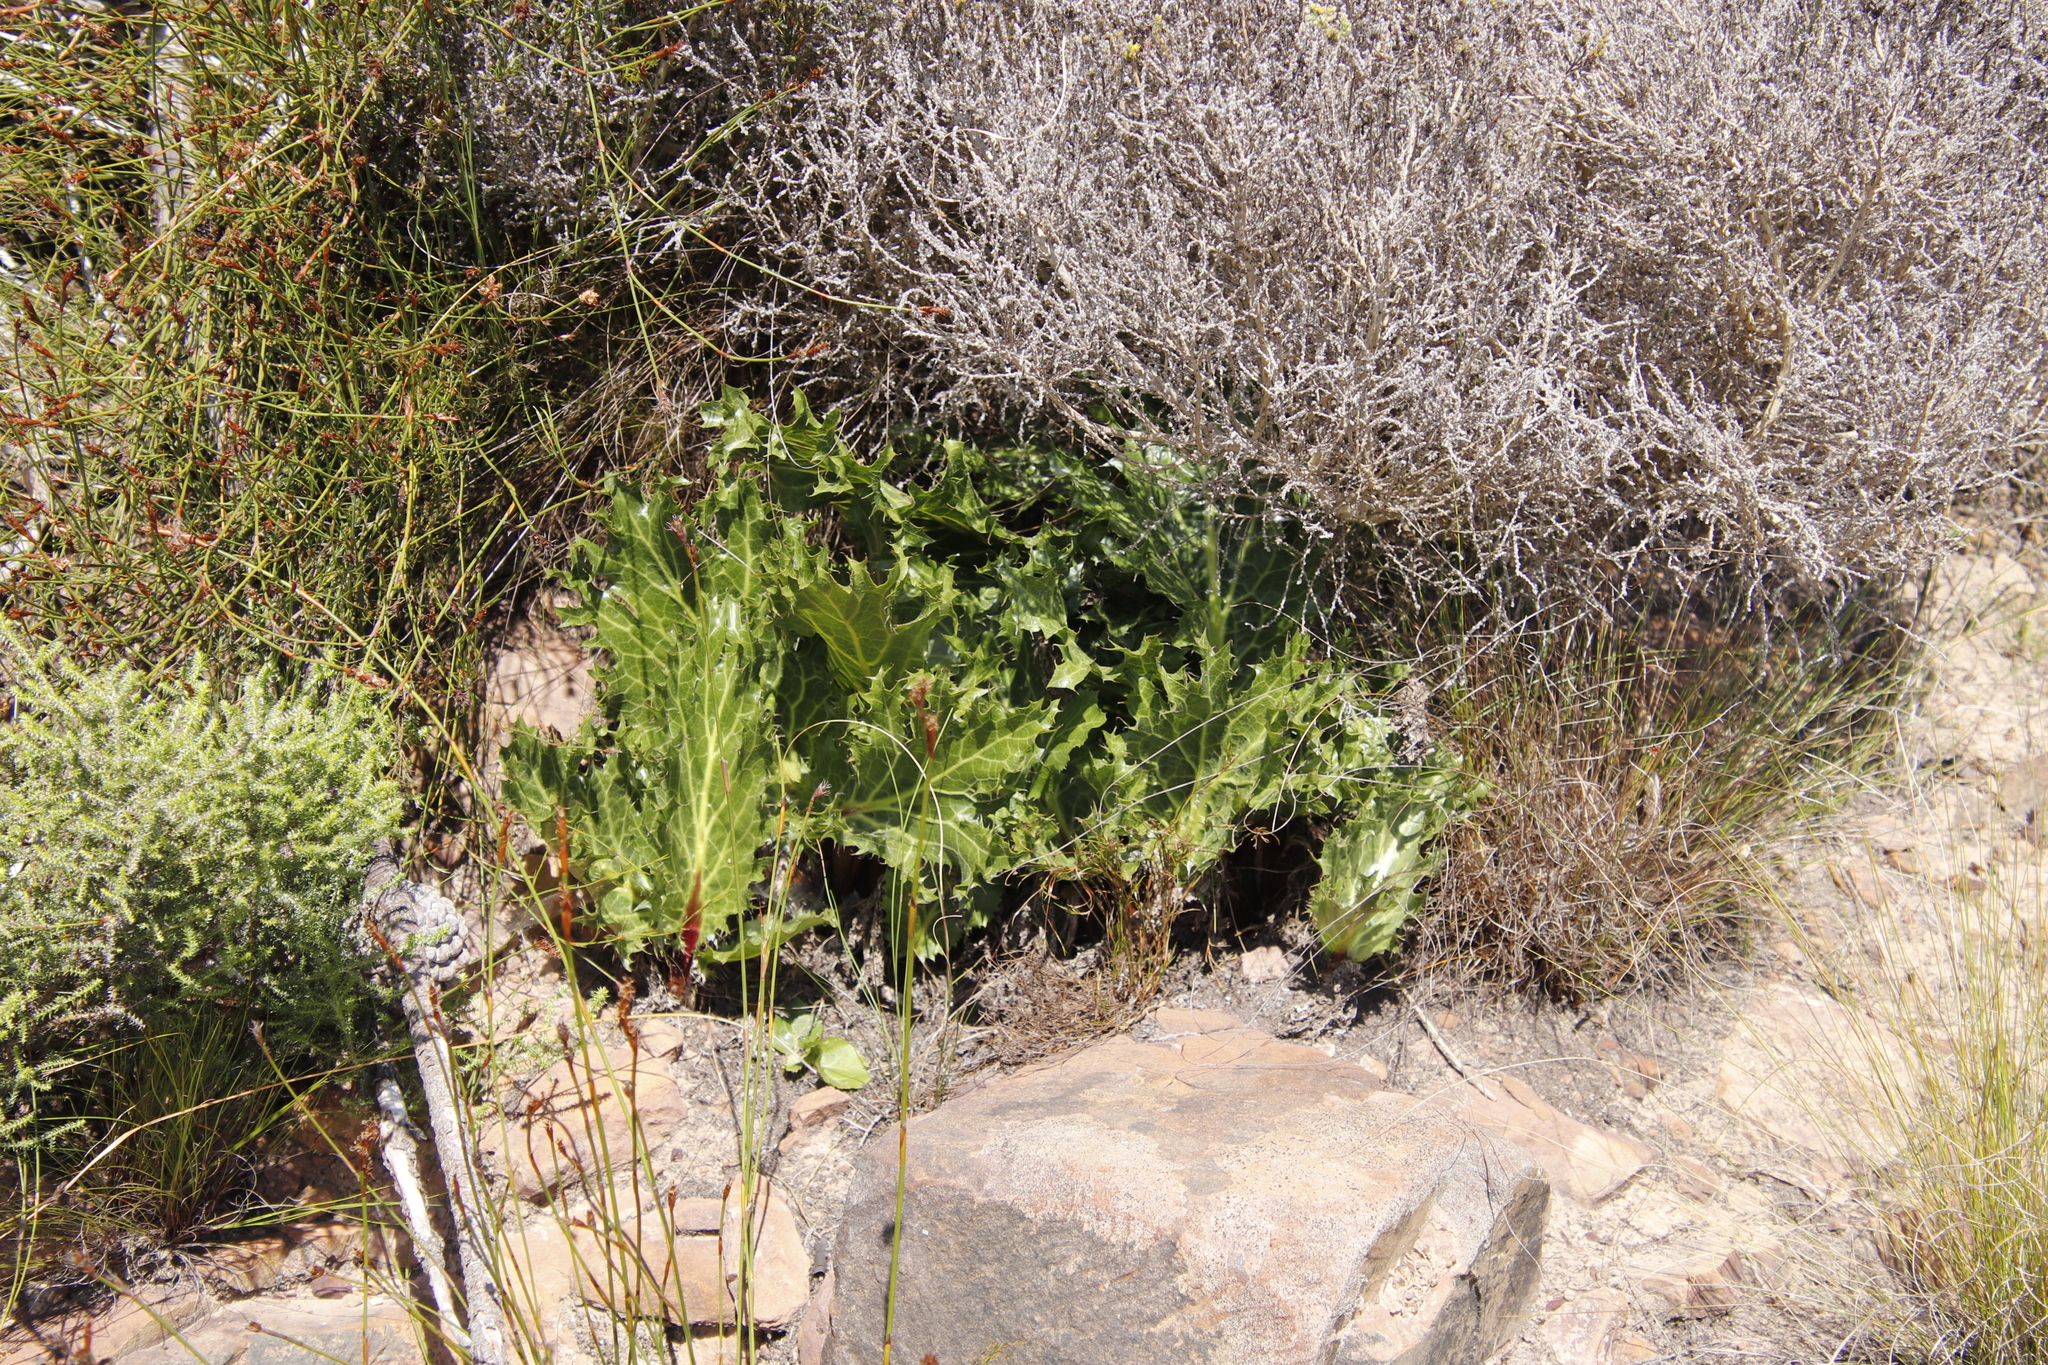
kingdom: Plantae
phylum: Tracheophyta
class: Magnoliopsida
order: Apiales
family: Apiaceae
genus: Lichtensteinia
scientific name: Lichtensteinia lacera
